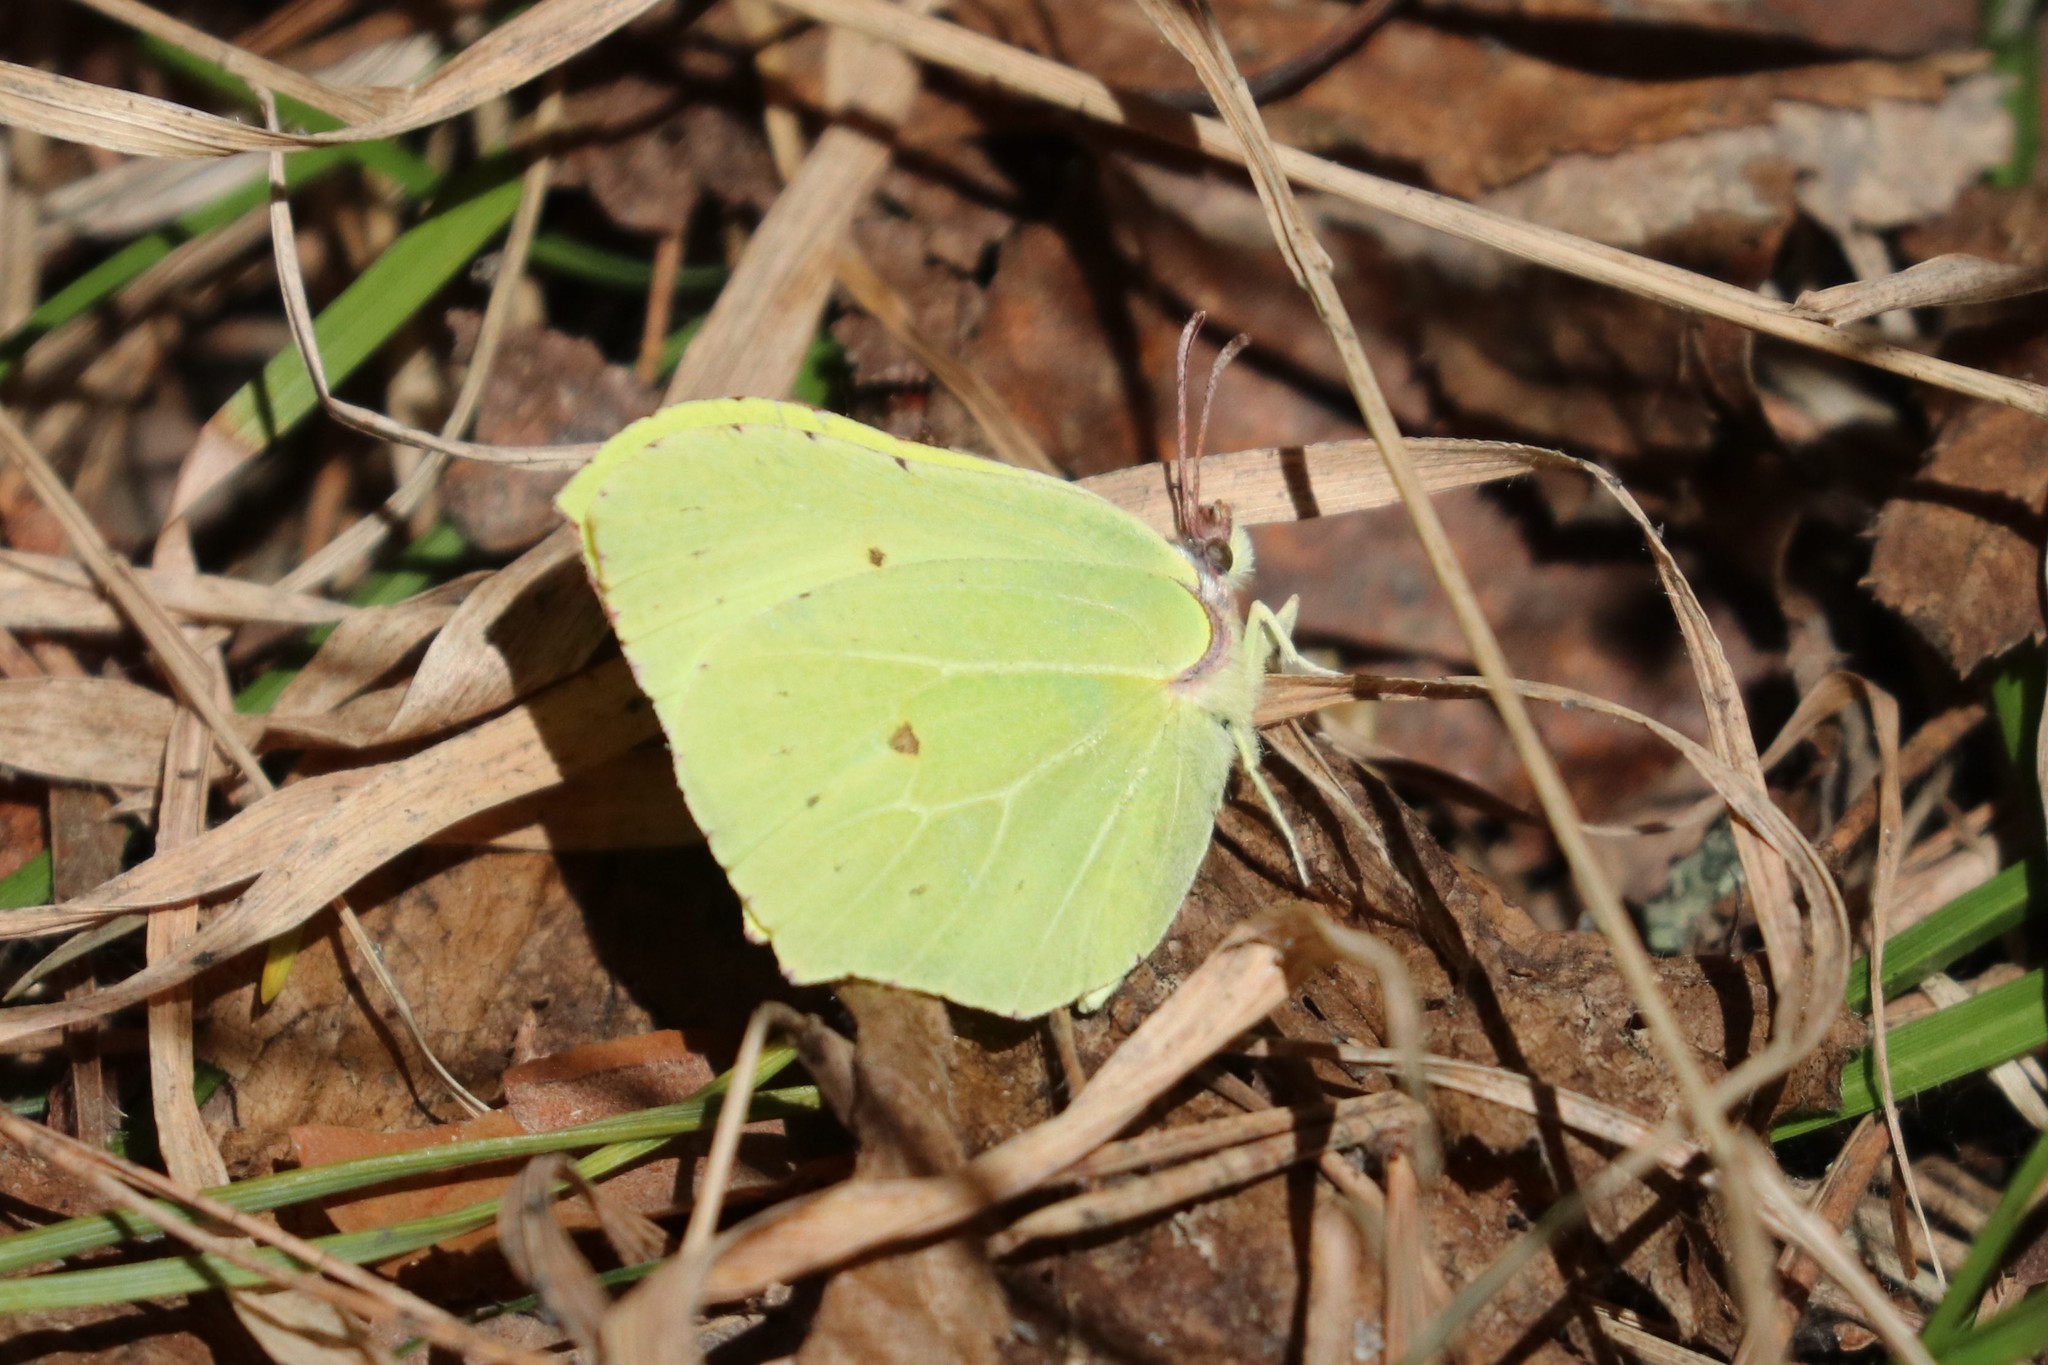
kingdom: Animalia
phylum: Arthropoda
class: Insecta
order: Lepidoptera
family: Pieridae
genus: Gonepteryx
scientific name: Gonepteryx rhamni
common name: Brimstone
